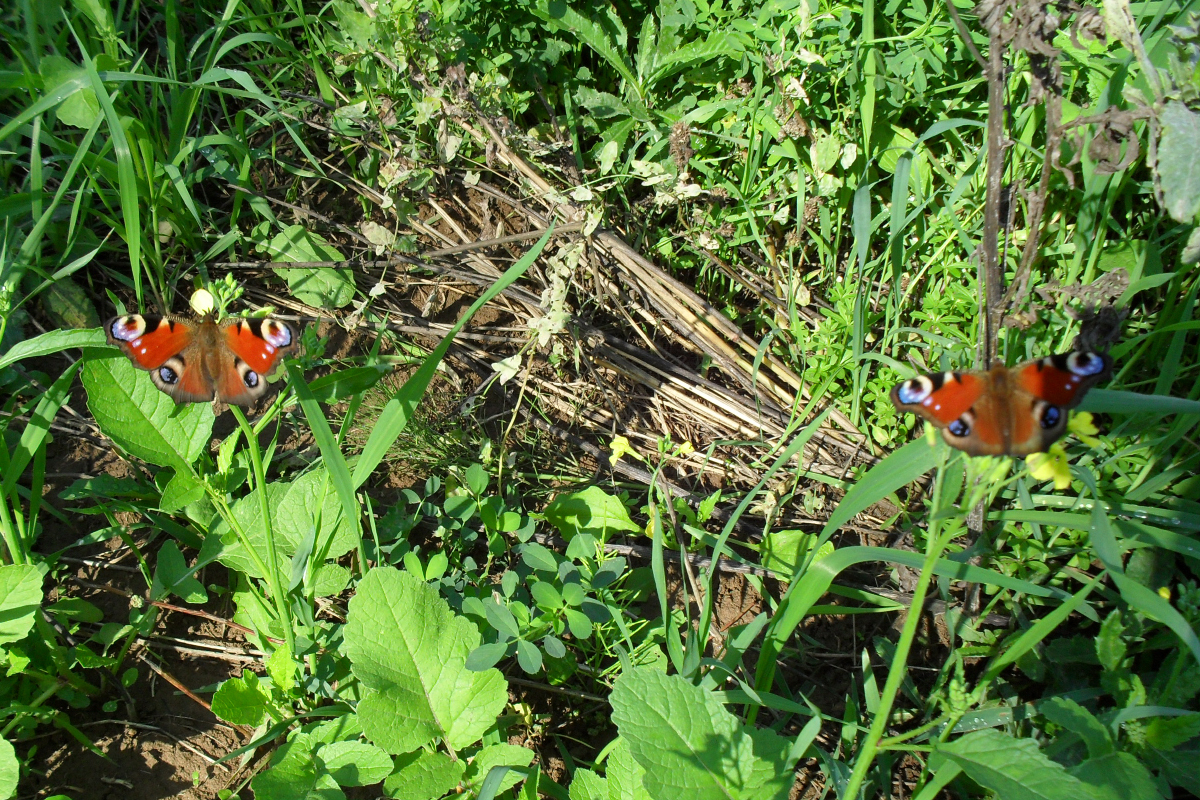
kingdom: Animalia
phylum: Arthropoda
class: Insecta
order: Lepidoptera
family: Nymphalidae
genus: Aglais
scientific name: Aglais io
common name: Peacock
